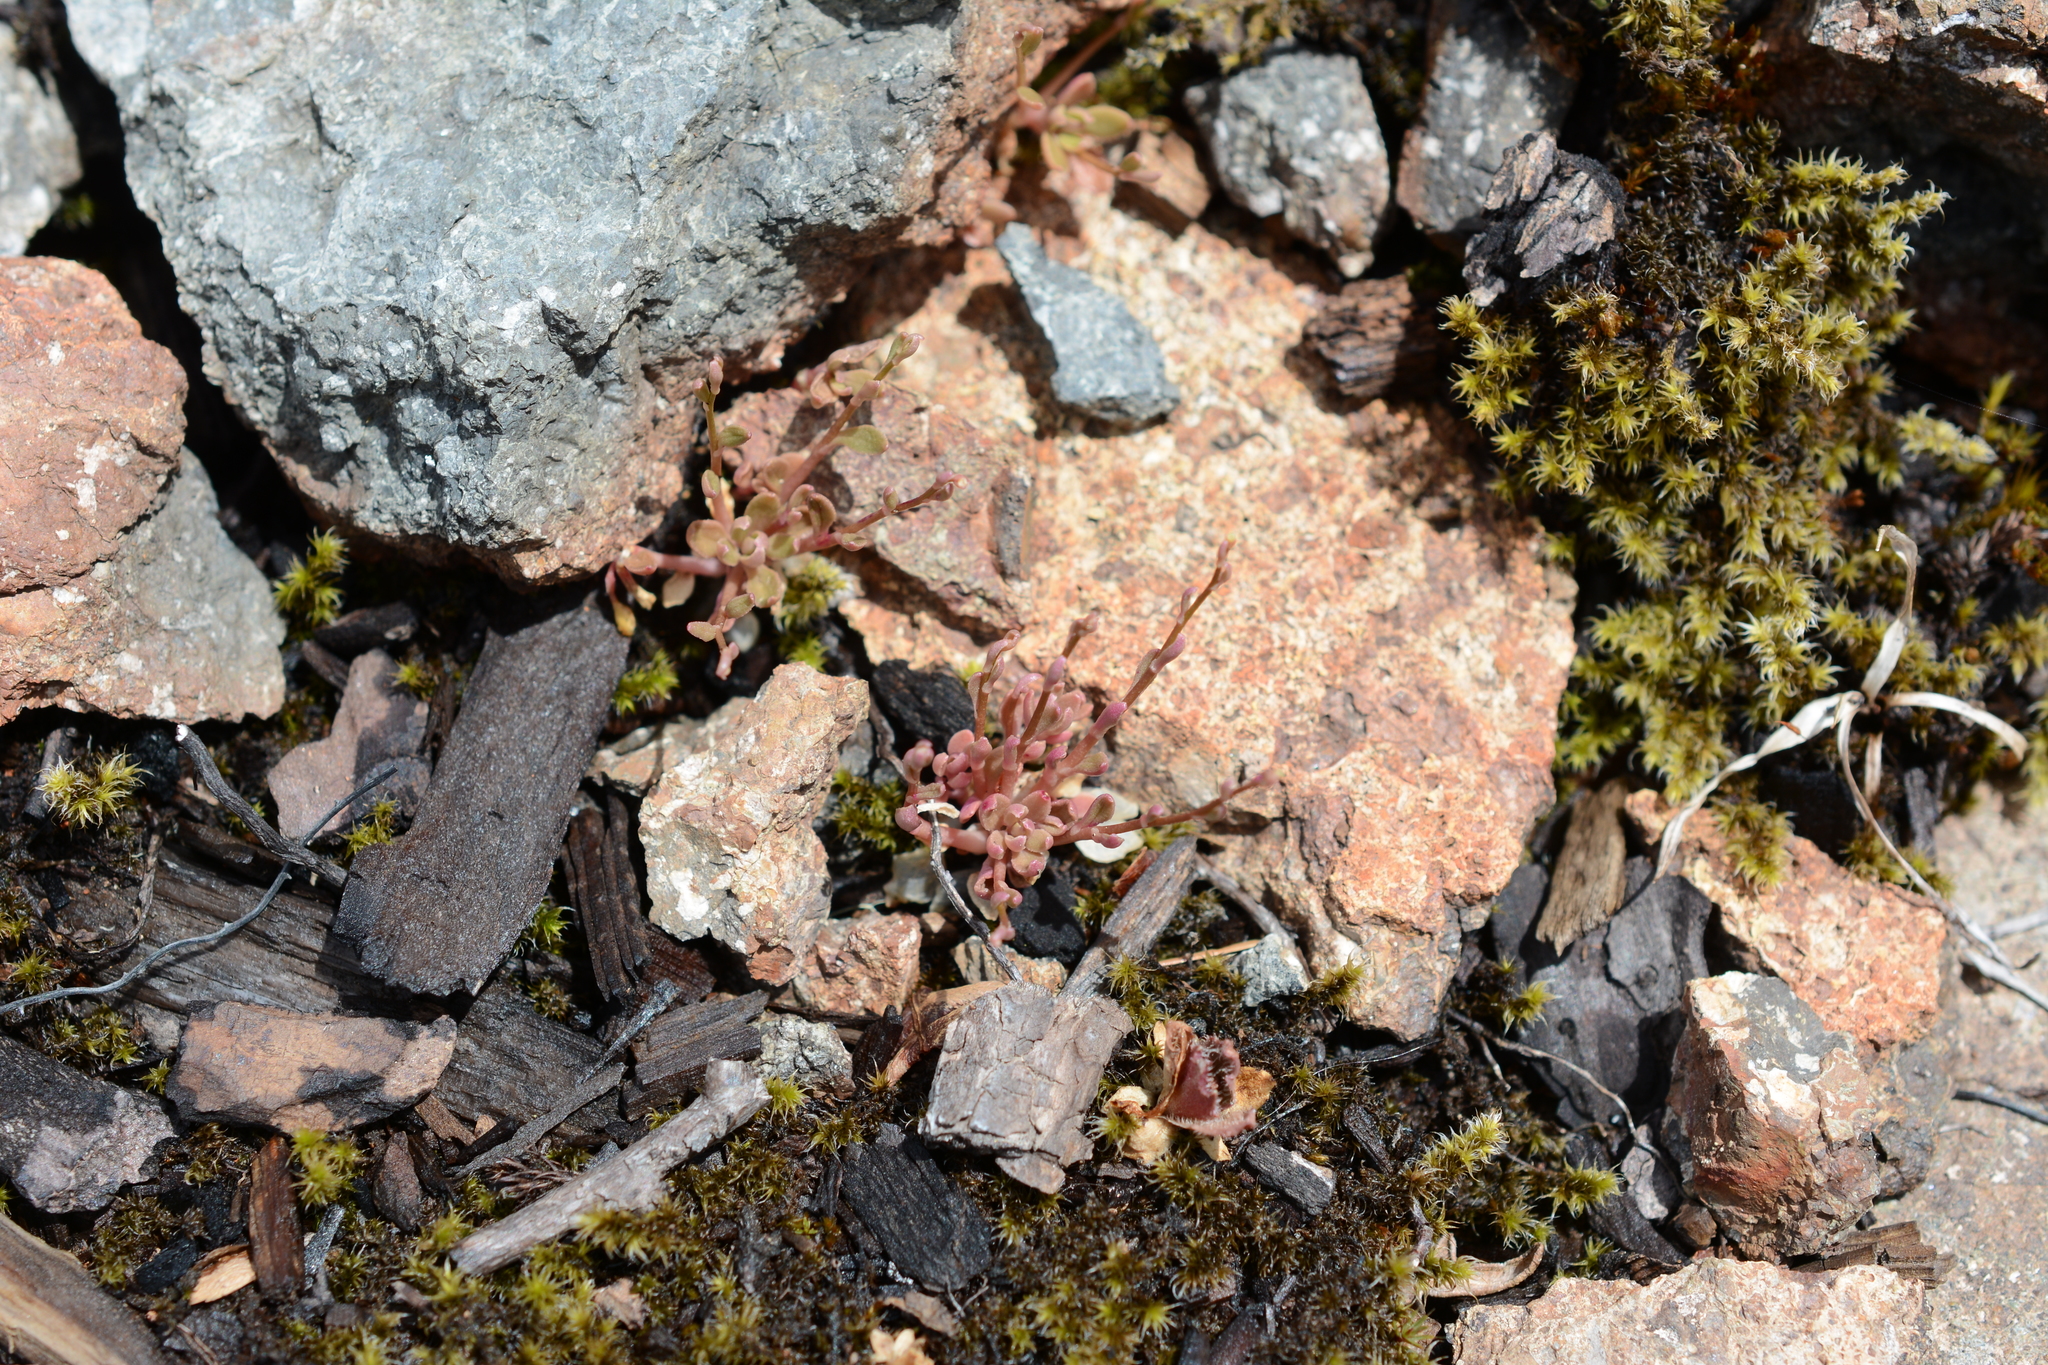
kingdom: Plantae
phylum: Tracheophyta
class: Magnoliopsida
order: Caryophyllales
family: Montiaceae
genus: Montia
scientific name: Montia parvifolia
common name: Small-leaved blinks
